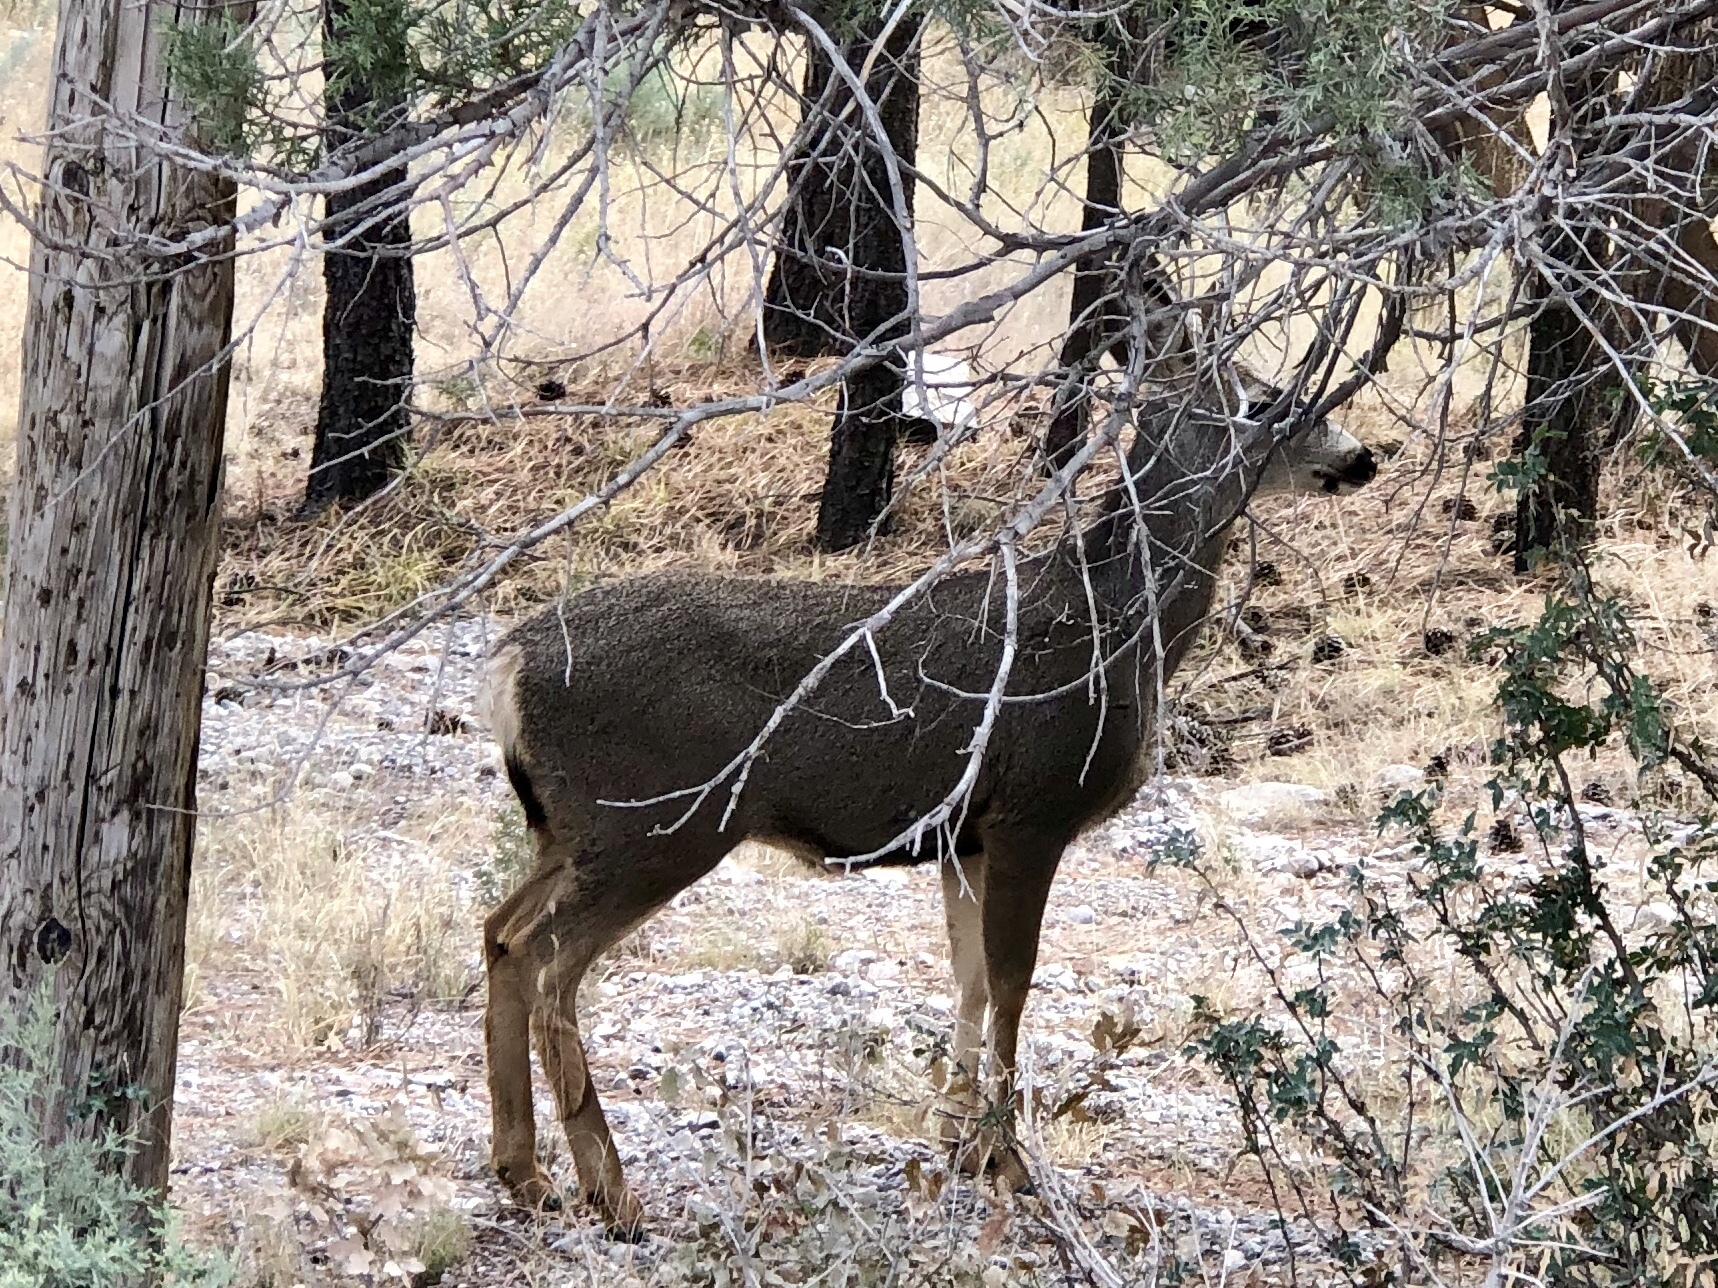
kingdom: Animalia
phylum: Chordata
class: Mammalia
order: Artiodactyla
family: Cervidae
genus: Odocoileus
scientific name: Odocoileus hemionus
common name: Mule deer
